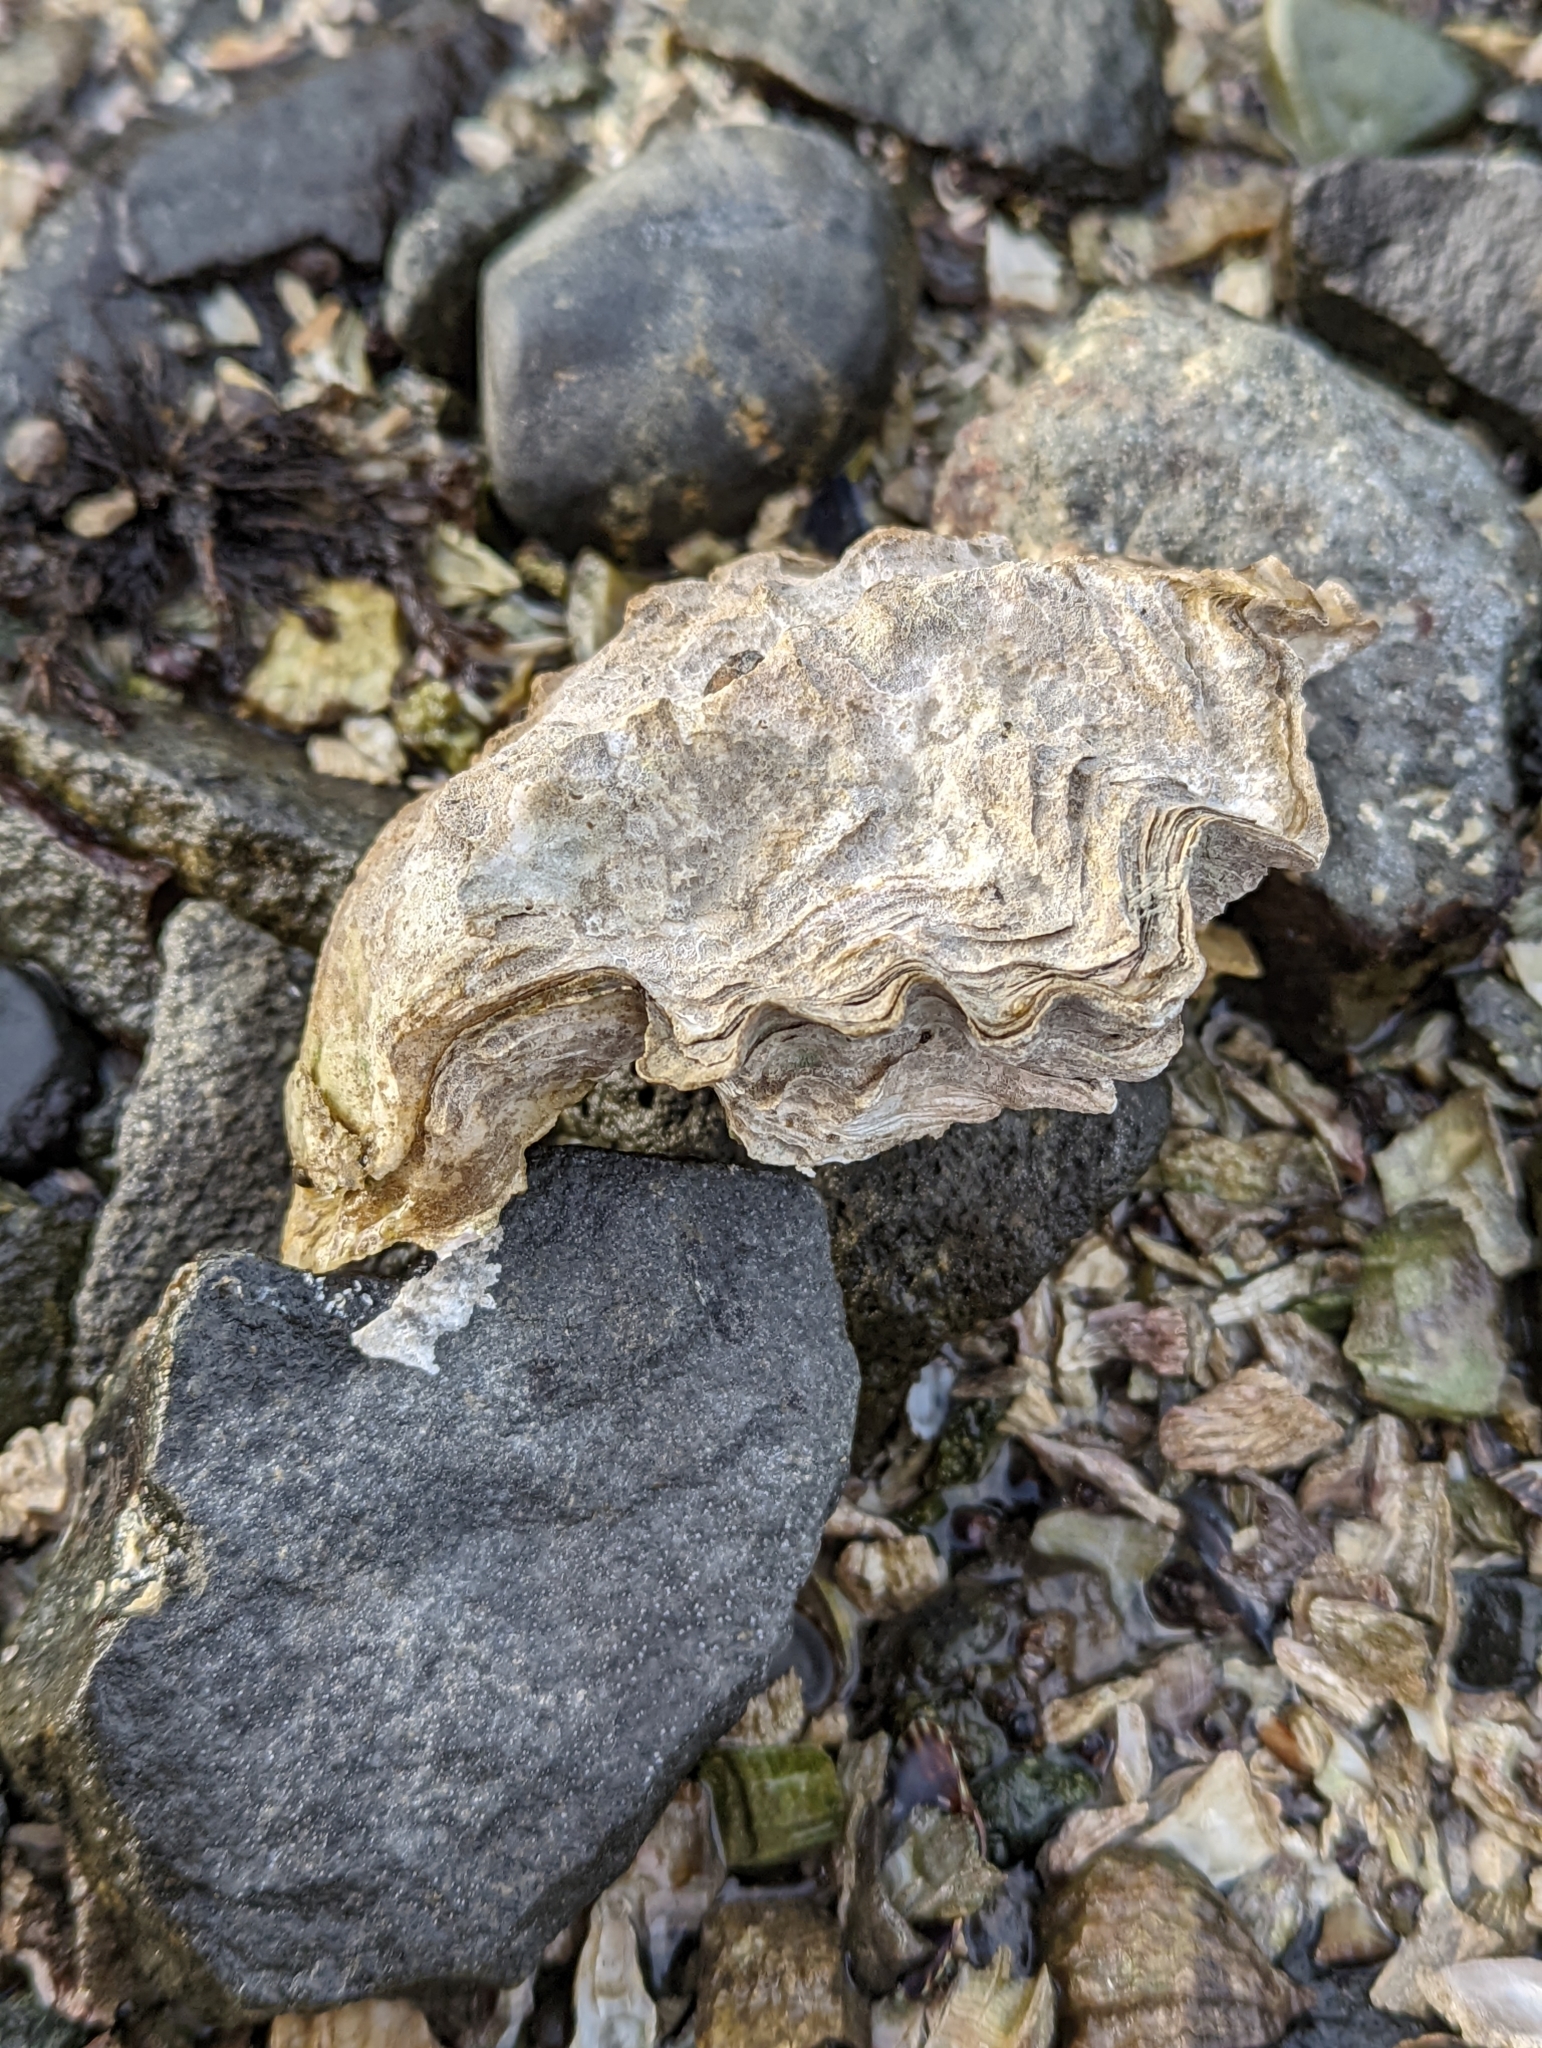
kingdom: Animalia
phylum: Mollusca
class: Bivalvia
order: Ostreida
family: Ostreidae
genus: Magallana
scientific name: Magallana gigas
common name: Pacific oyster
